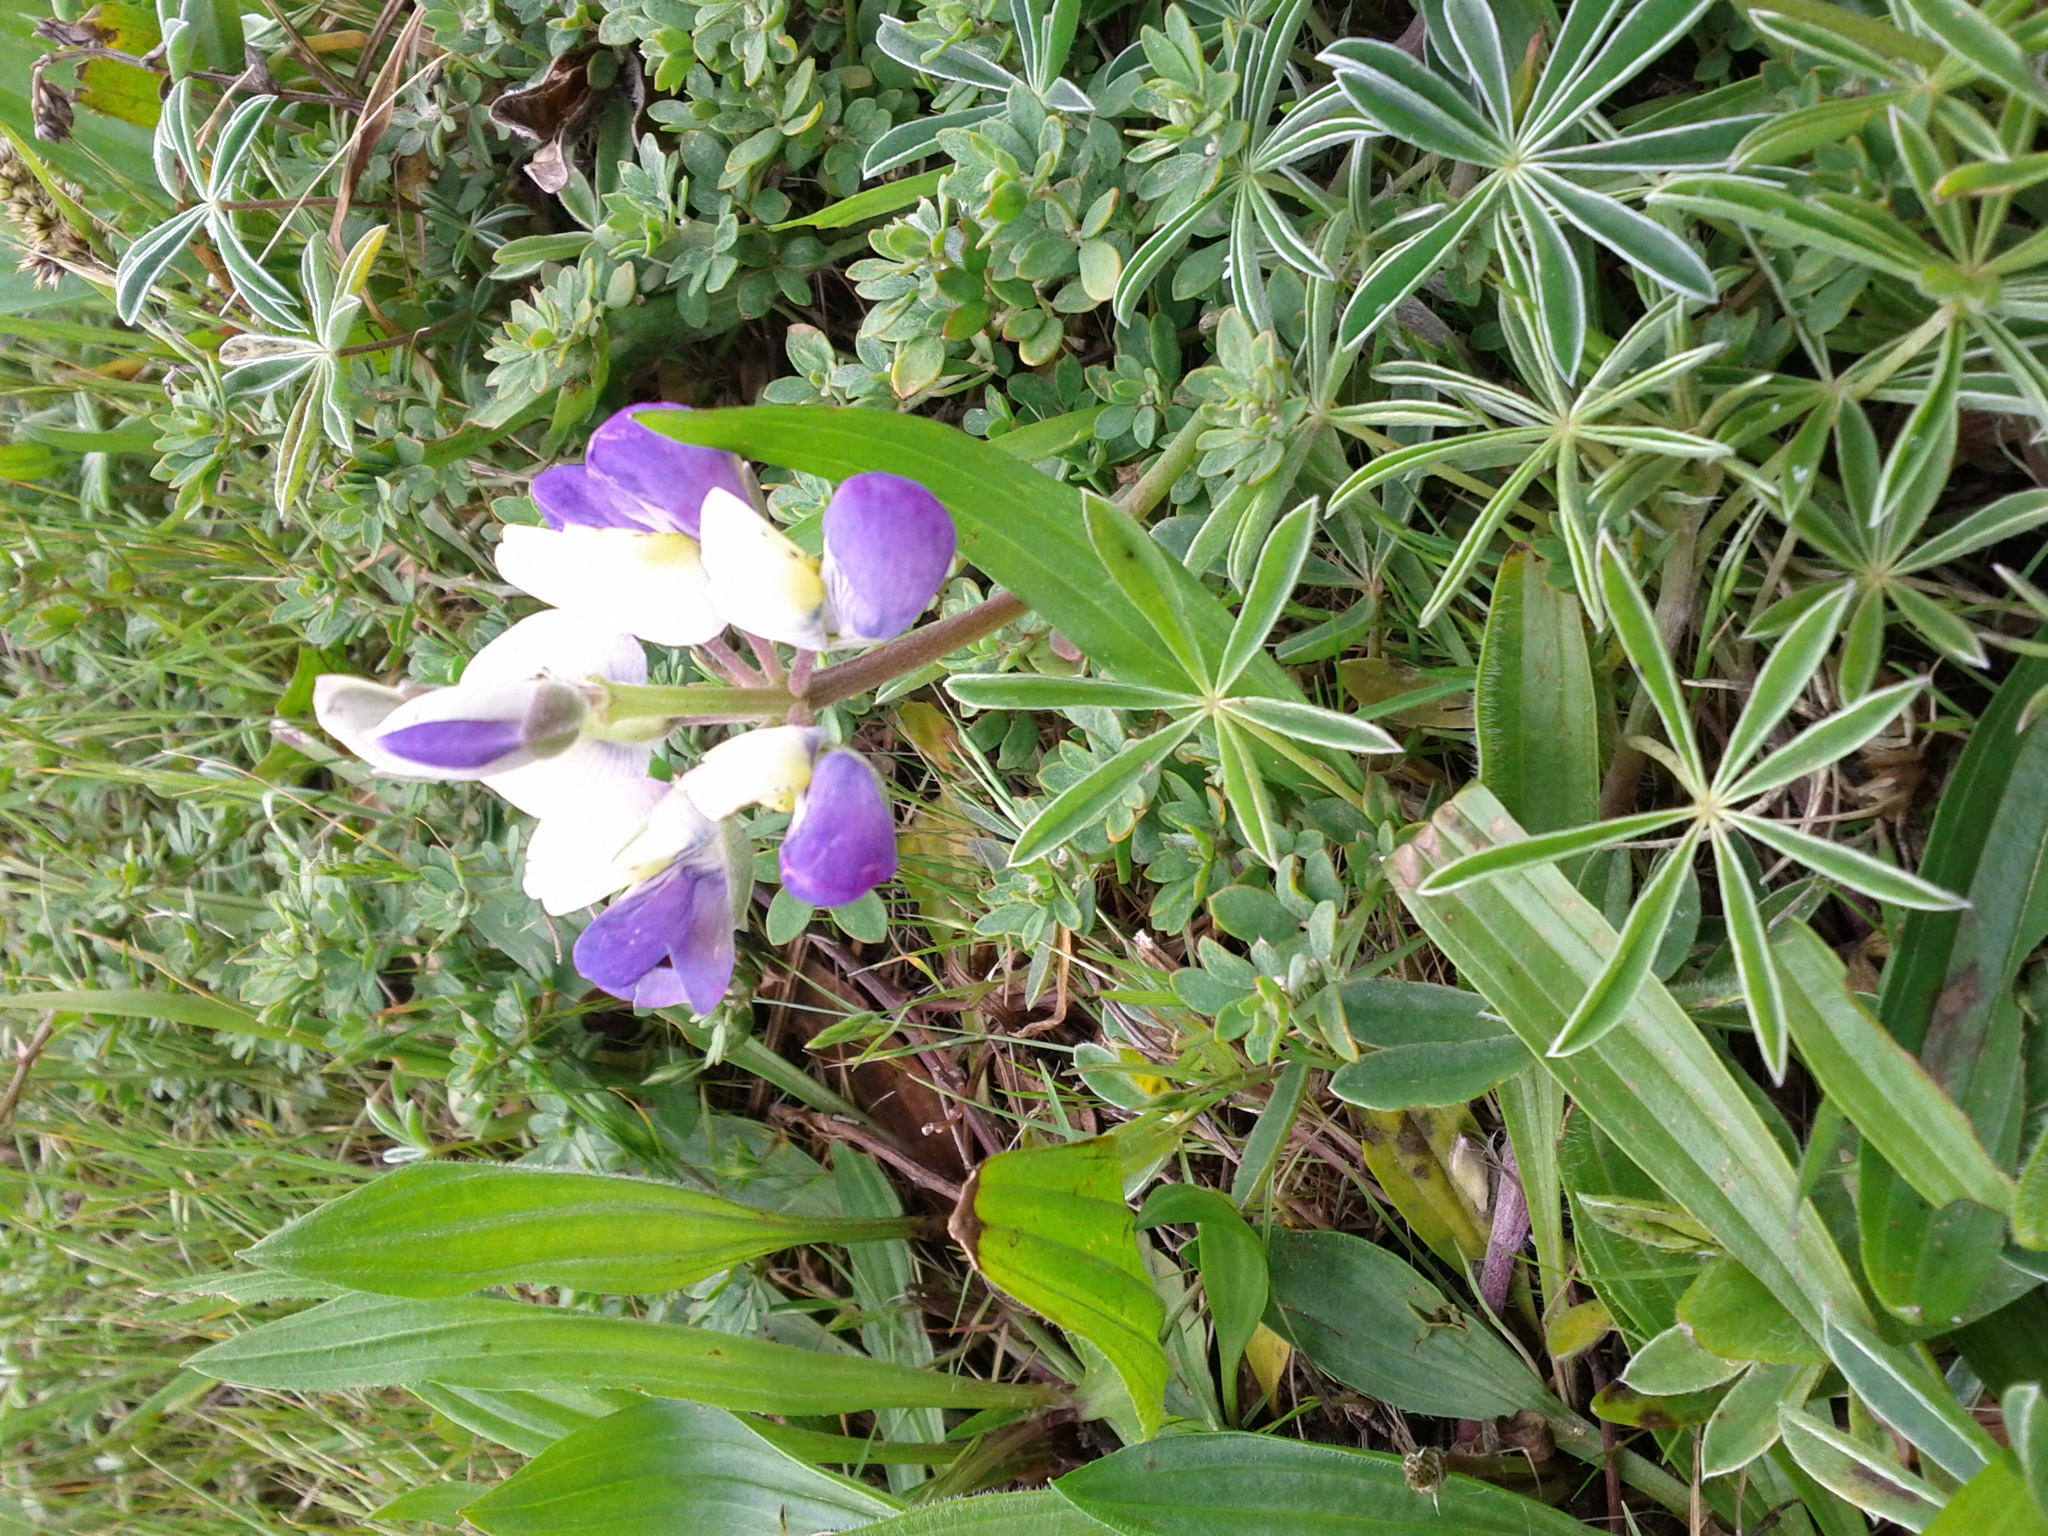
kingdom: Plantae
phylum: Tracheophyta
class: Magnoliopsida
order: Fabales
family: Fabaceae
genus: Lupinus
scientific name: Lupinus variicolor
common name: Lindley's varied lupine
